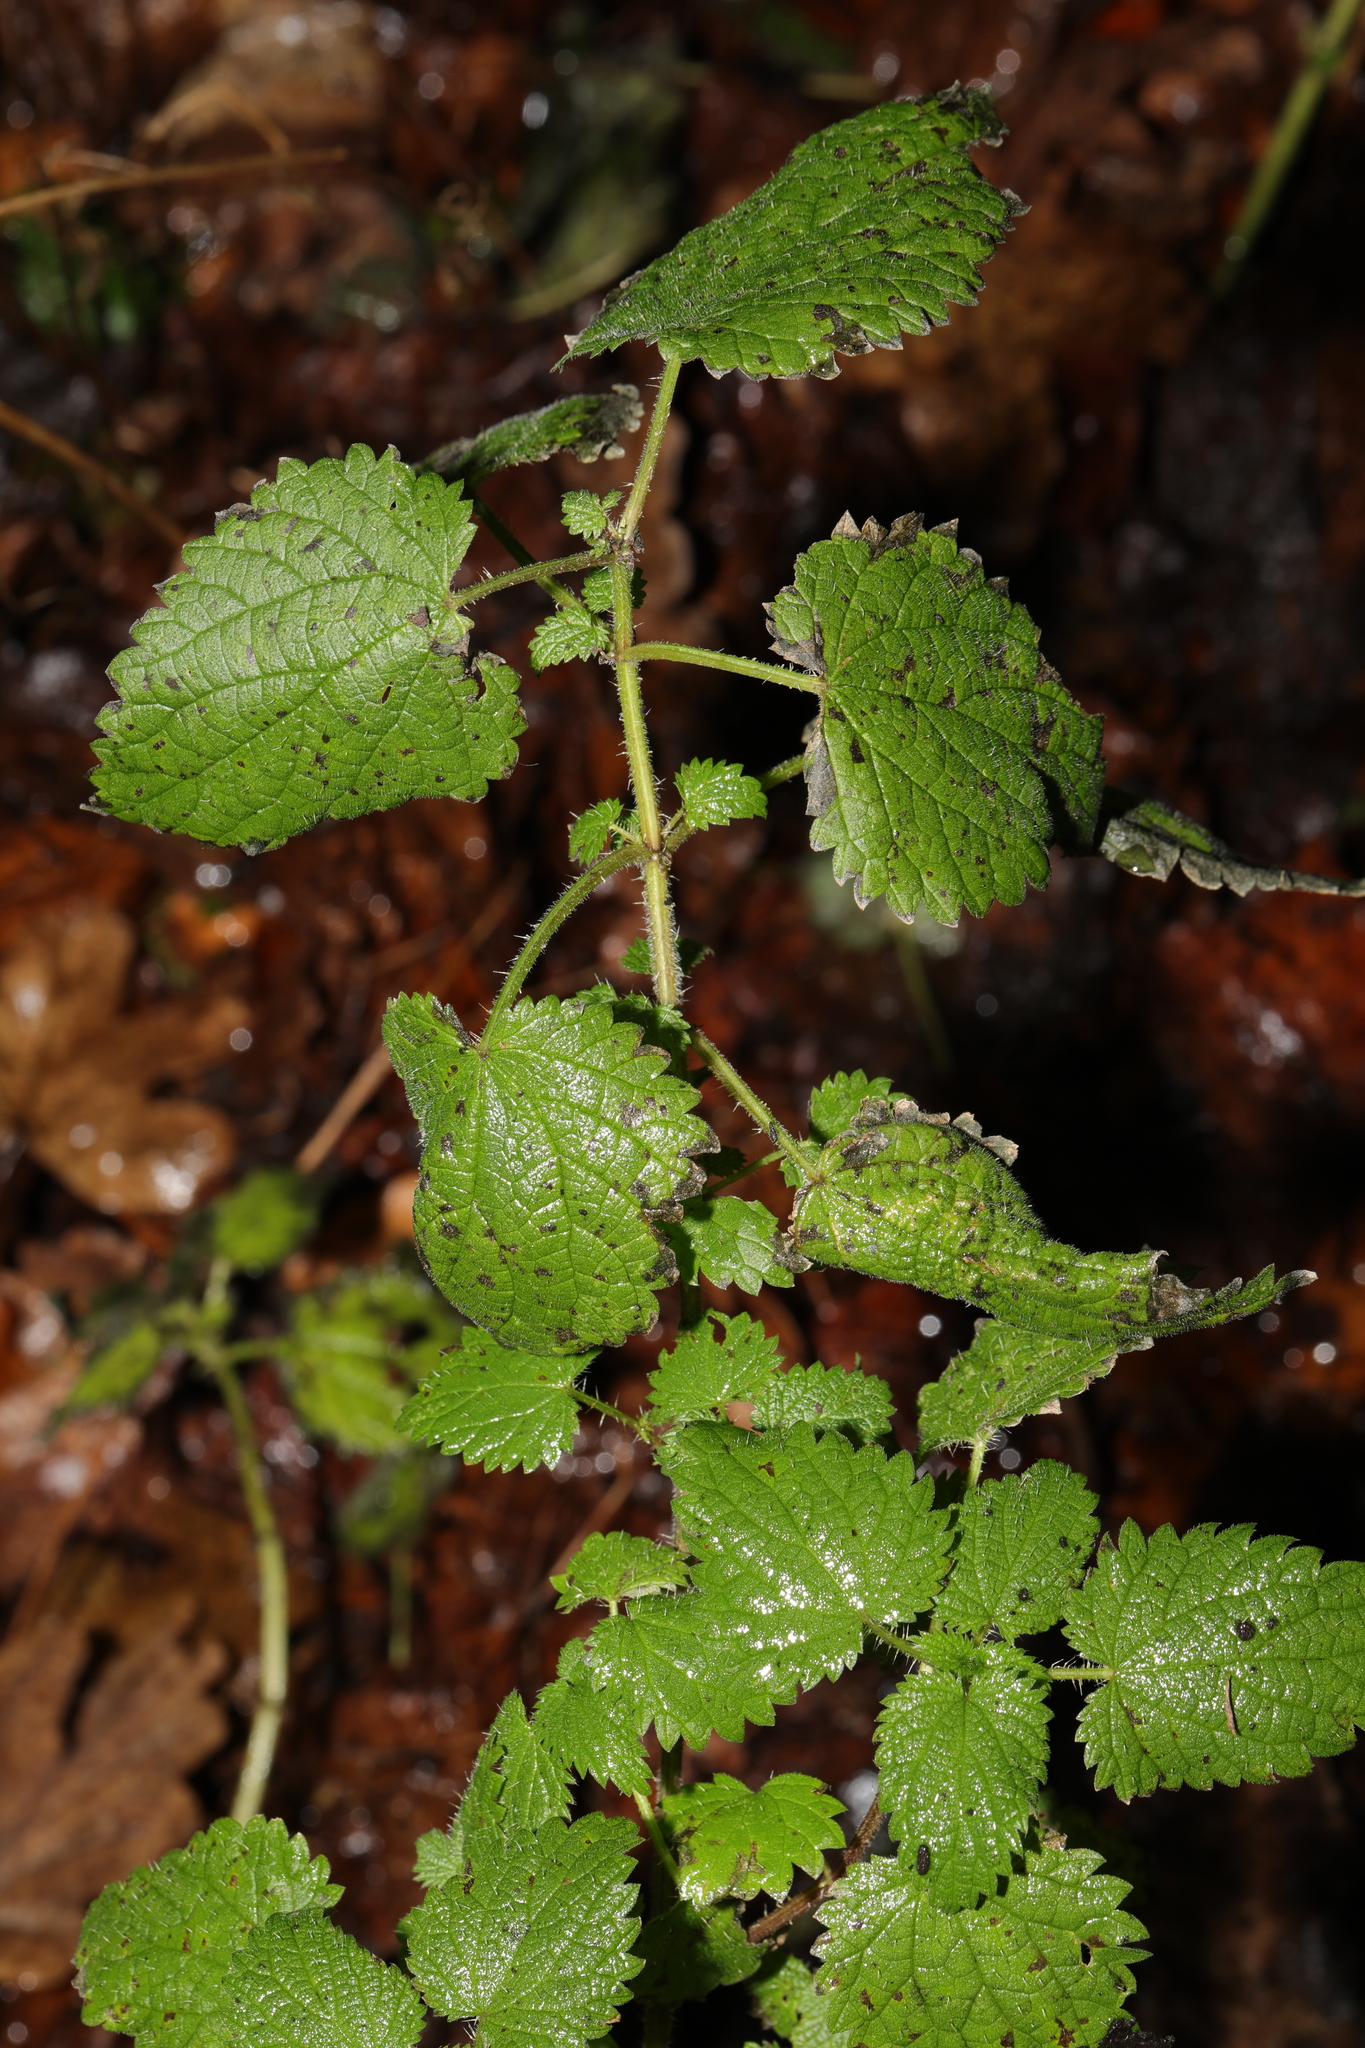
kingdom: Plantae
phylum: Tracheophyta
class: Magnoliopsida
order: Rosales
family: Urticaceae
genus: Urtica
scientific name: Urtica dioica
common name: Common nettle
